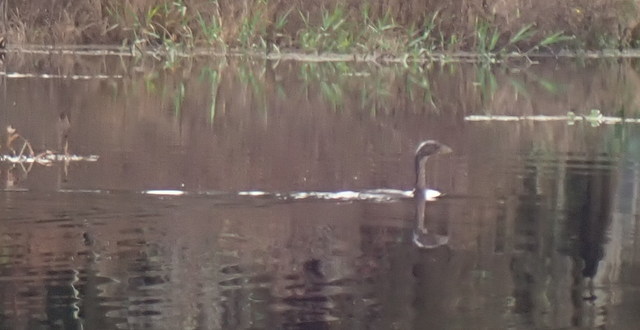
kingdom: Animalia
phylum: Chordata
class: Aves
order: Podicipediformes
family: Podicipedidae
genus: Podilymbus
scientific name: Podilymbus podiceps
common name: Pied-billed grebe
